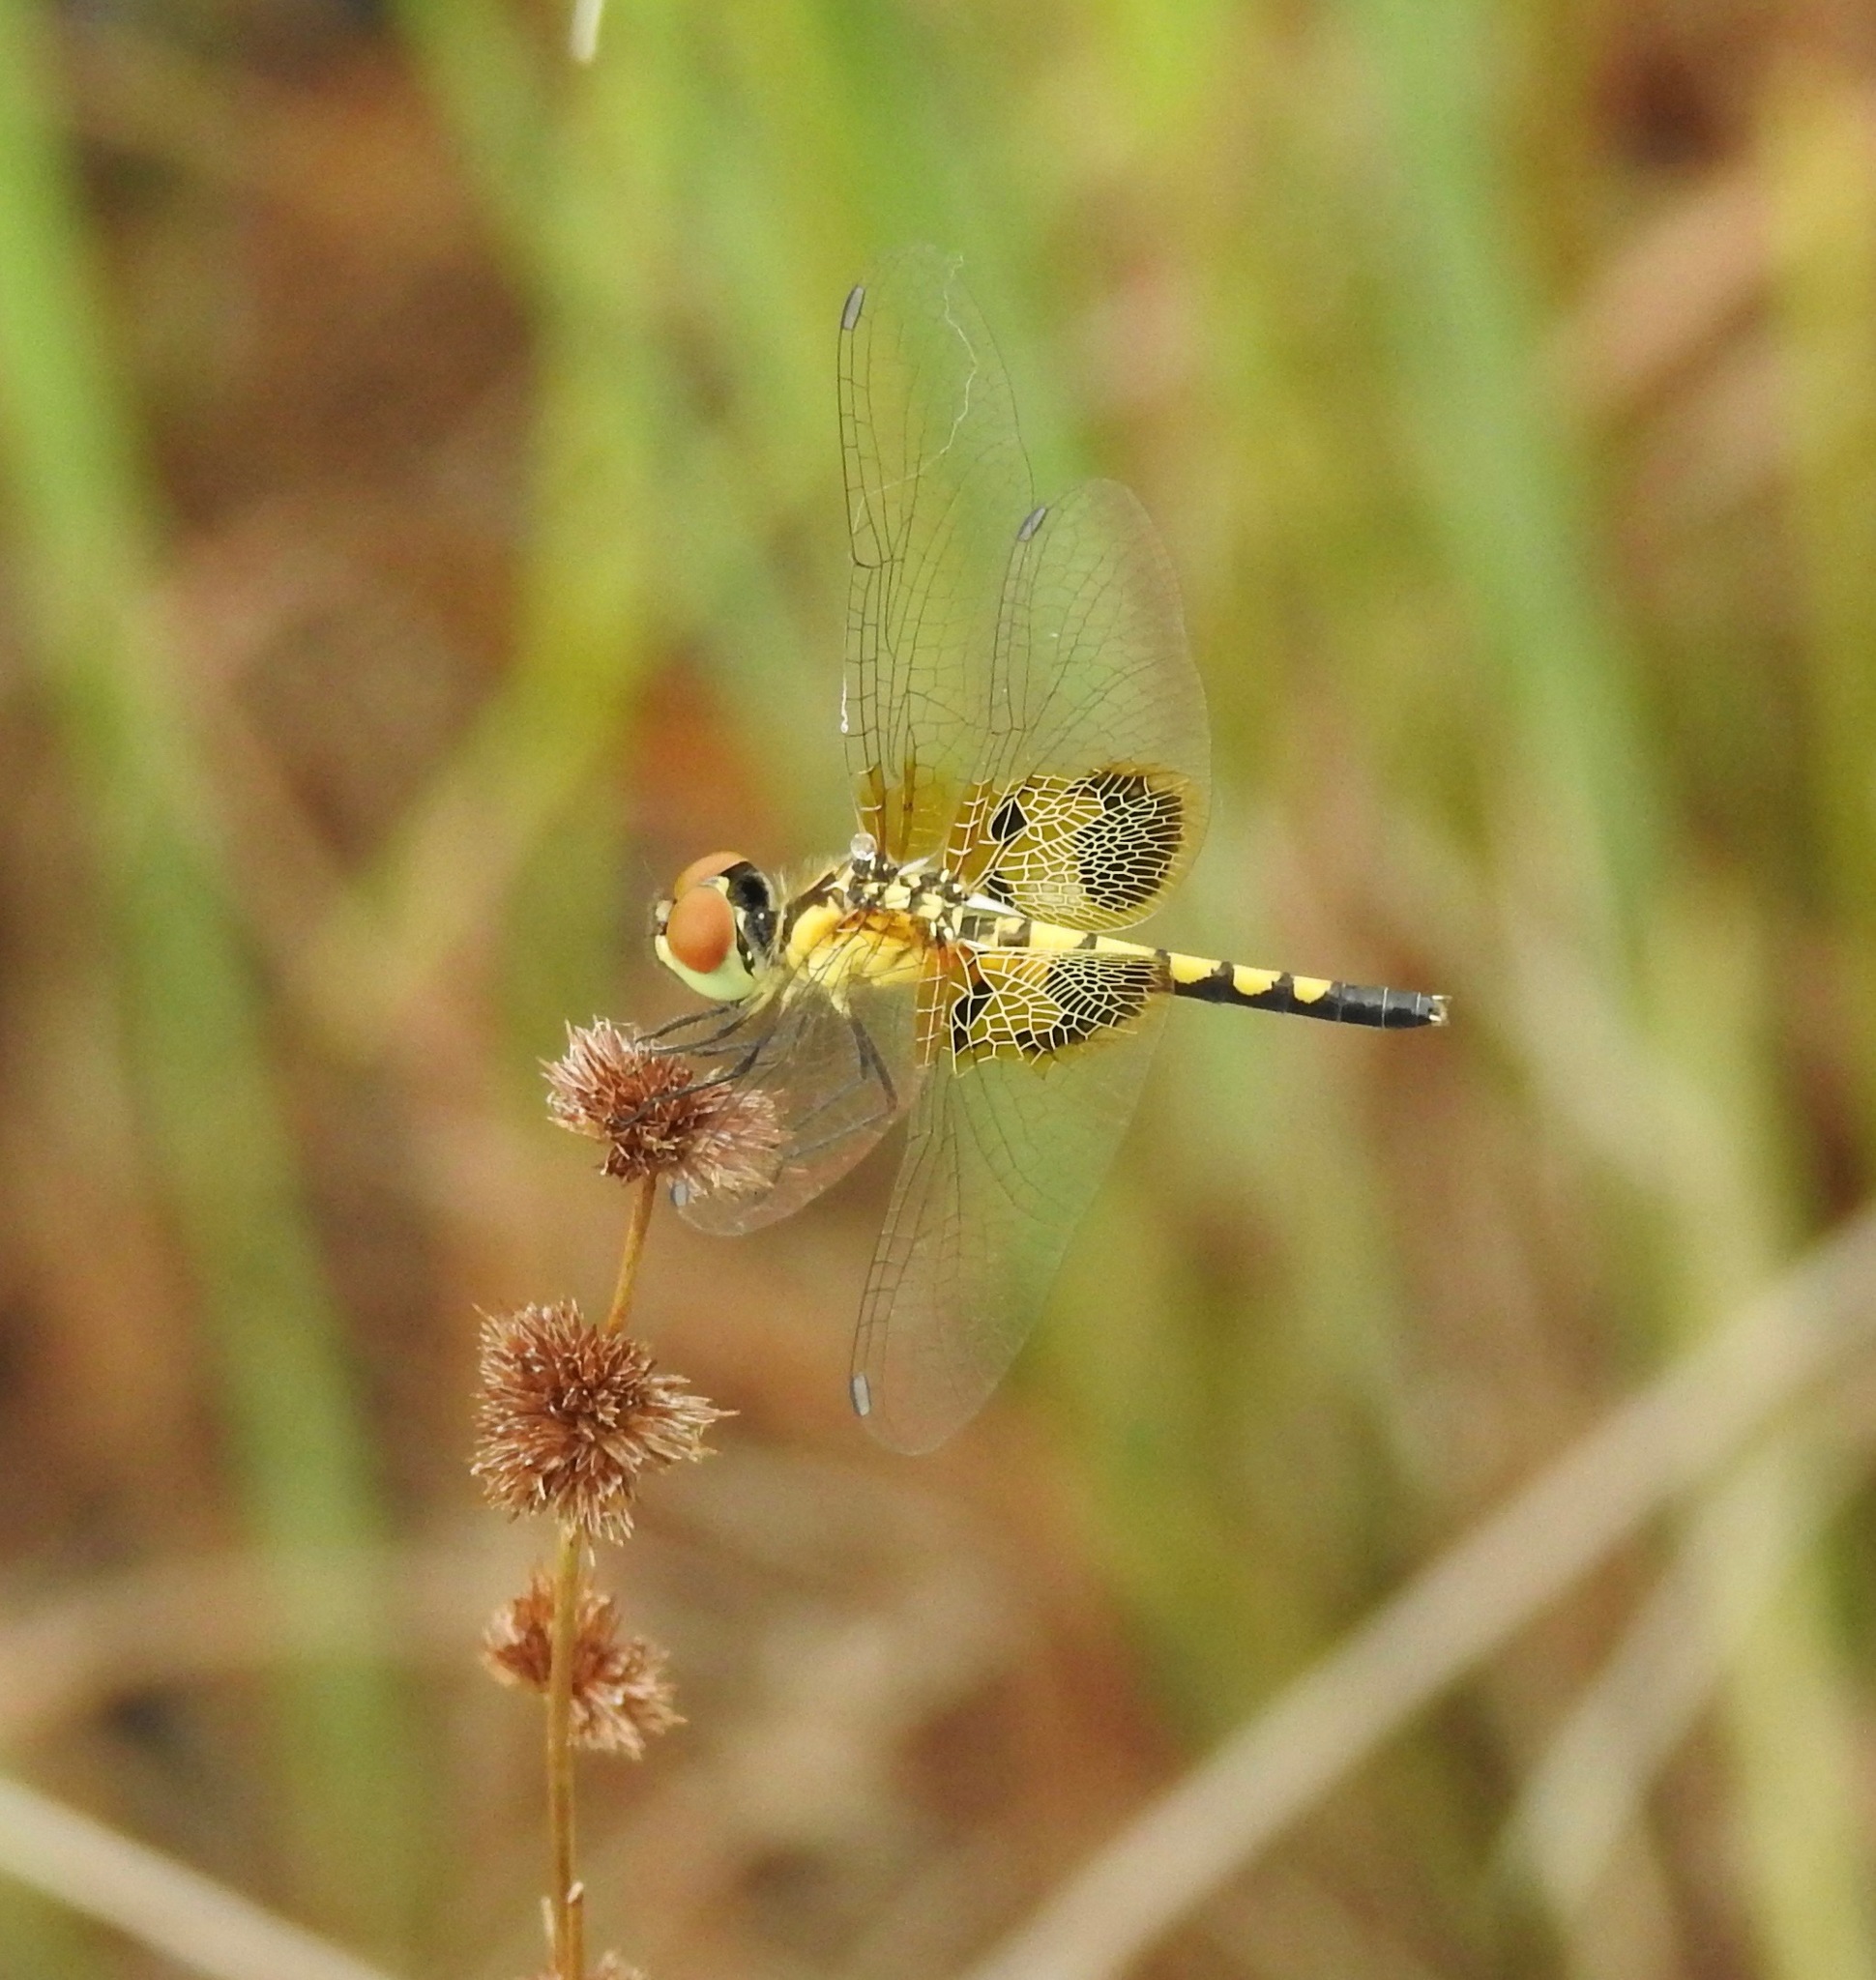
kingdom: Animalia
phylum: Arthropoda
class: Insecta
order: Odonata
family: Libellulidae
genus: Celithemis
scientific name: Celithemis amanda
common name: Amanda's pennant
